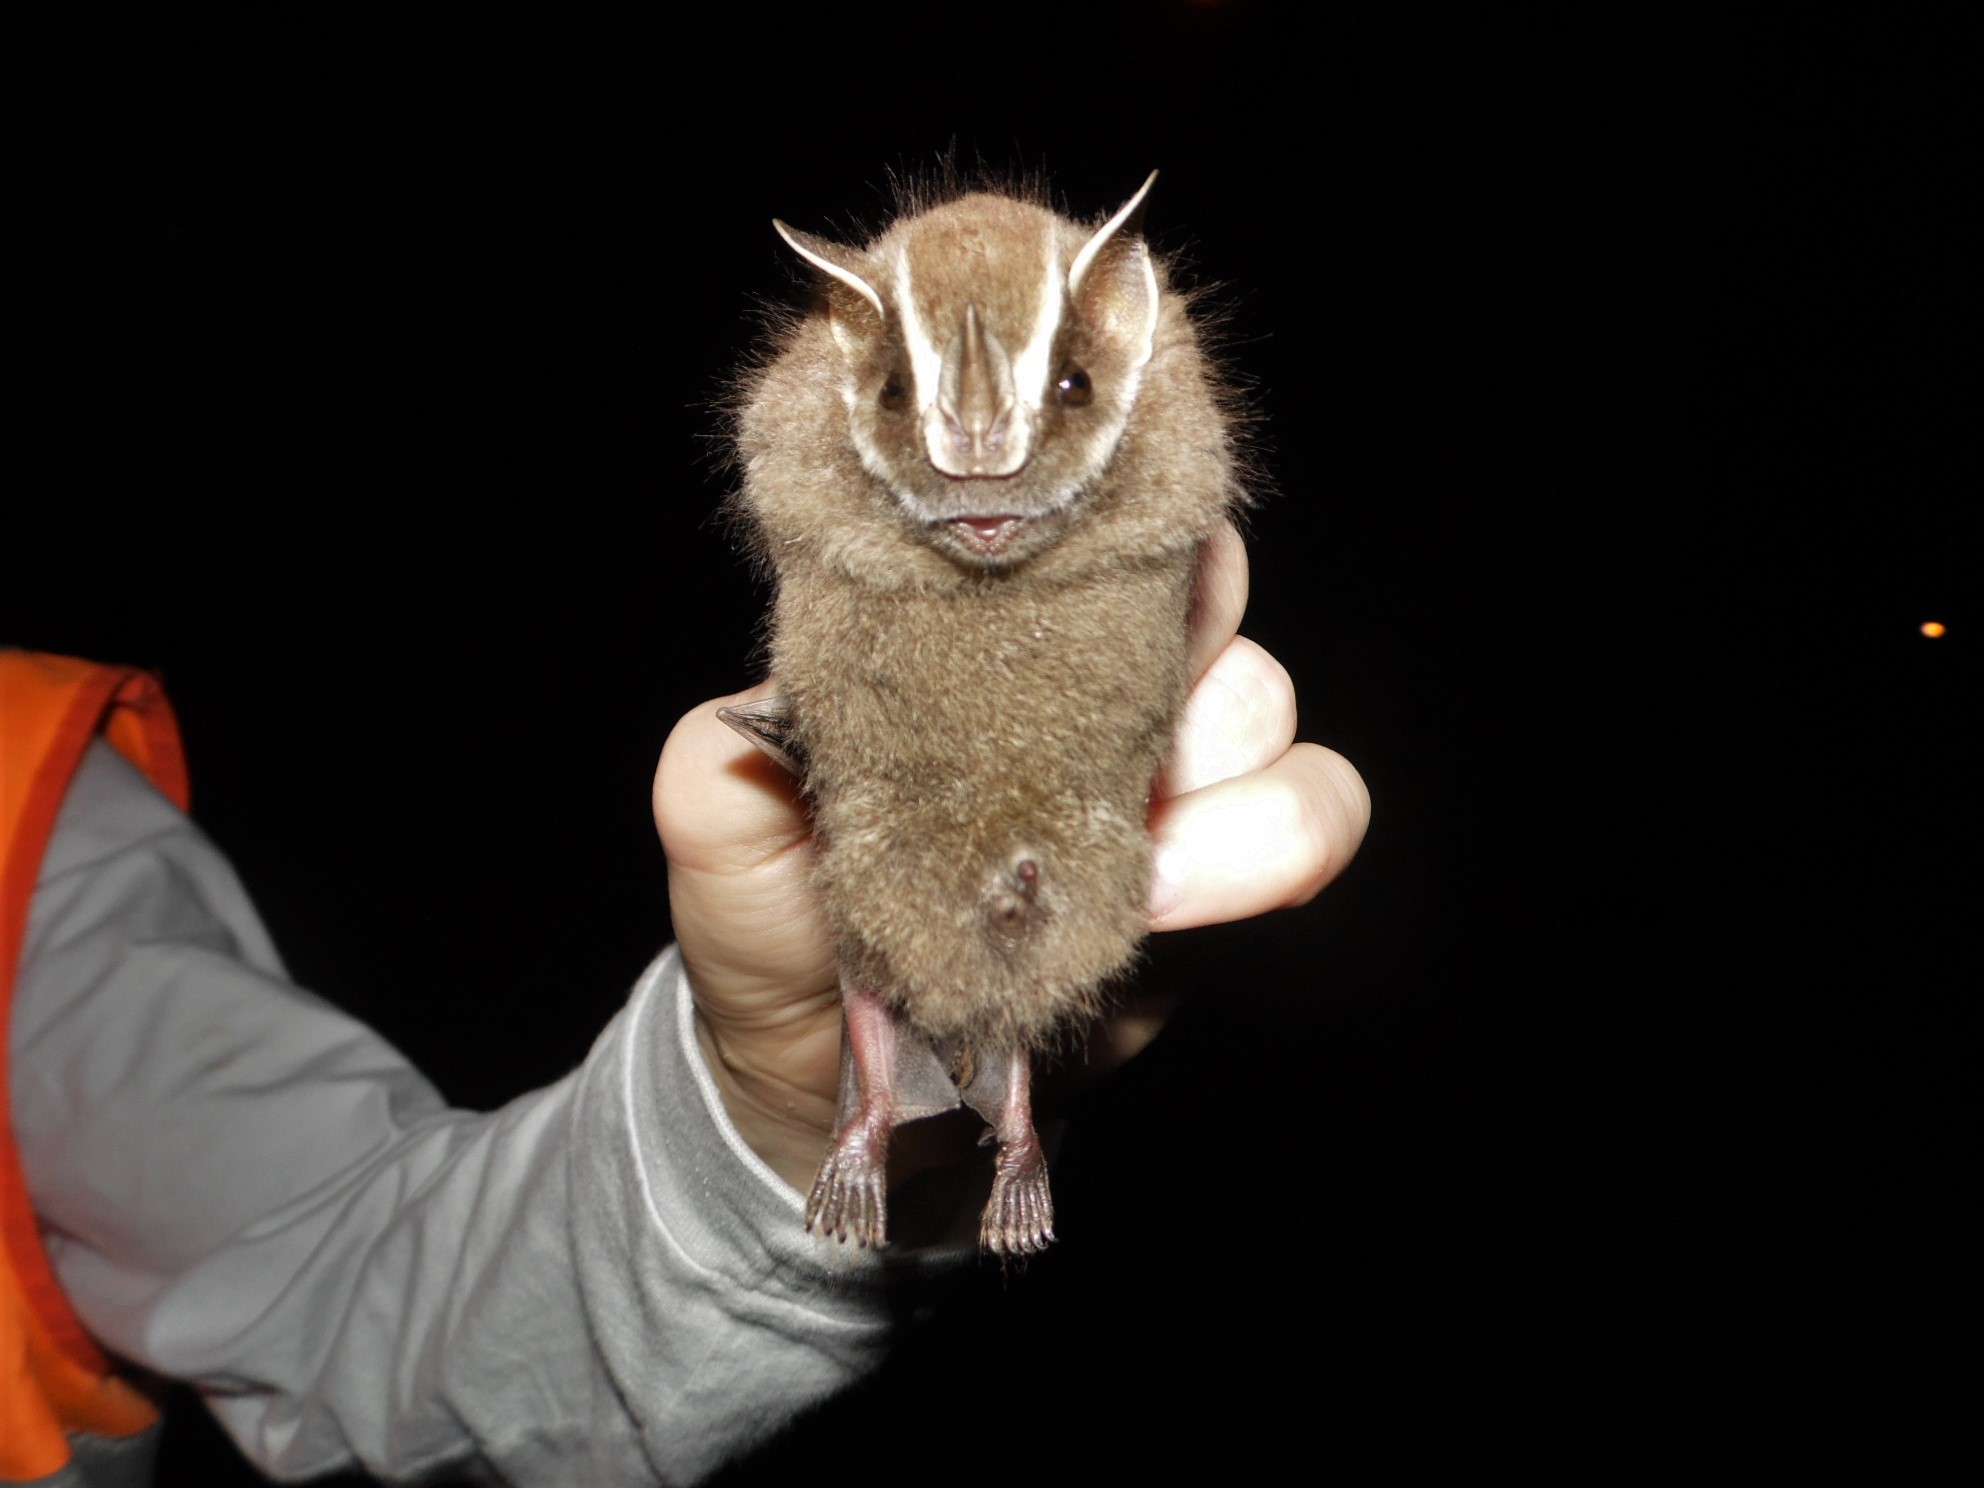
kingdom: Animalia
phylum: Chordata
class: Mammalia
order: Chiroptera
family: Phyllostomidae
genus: Chiroderma
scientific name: Chiroderma doriae
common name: Brazilian big-eyed bat
